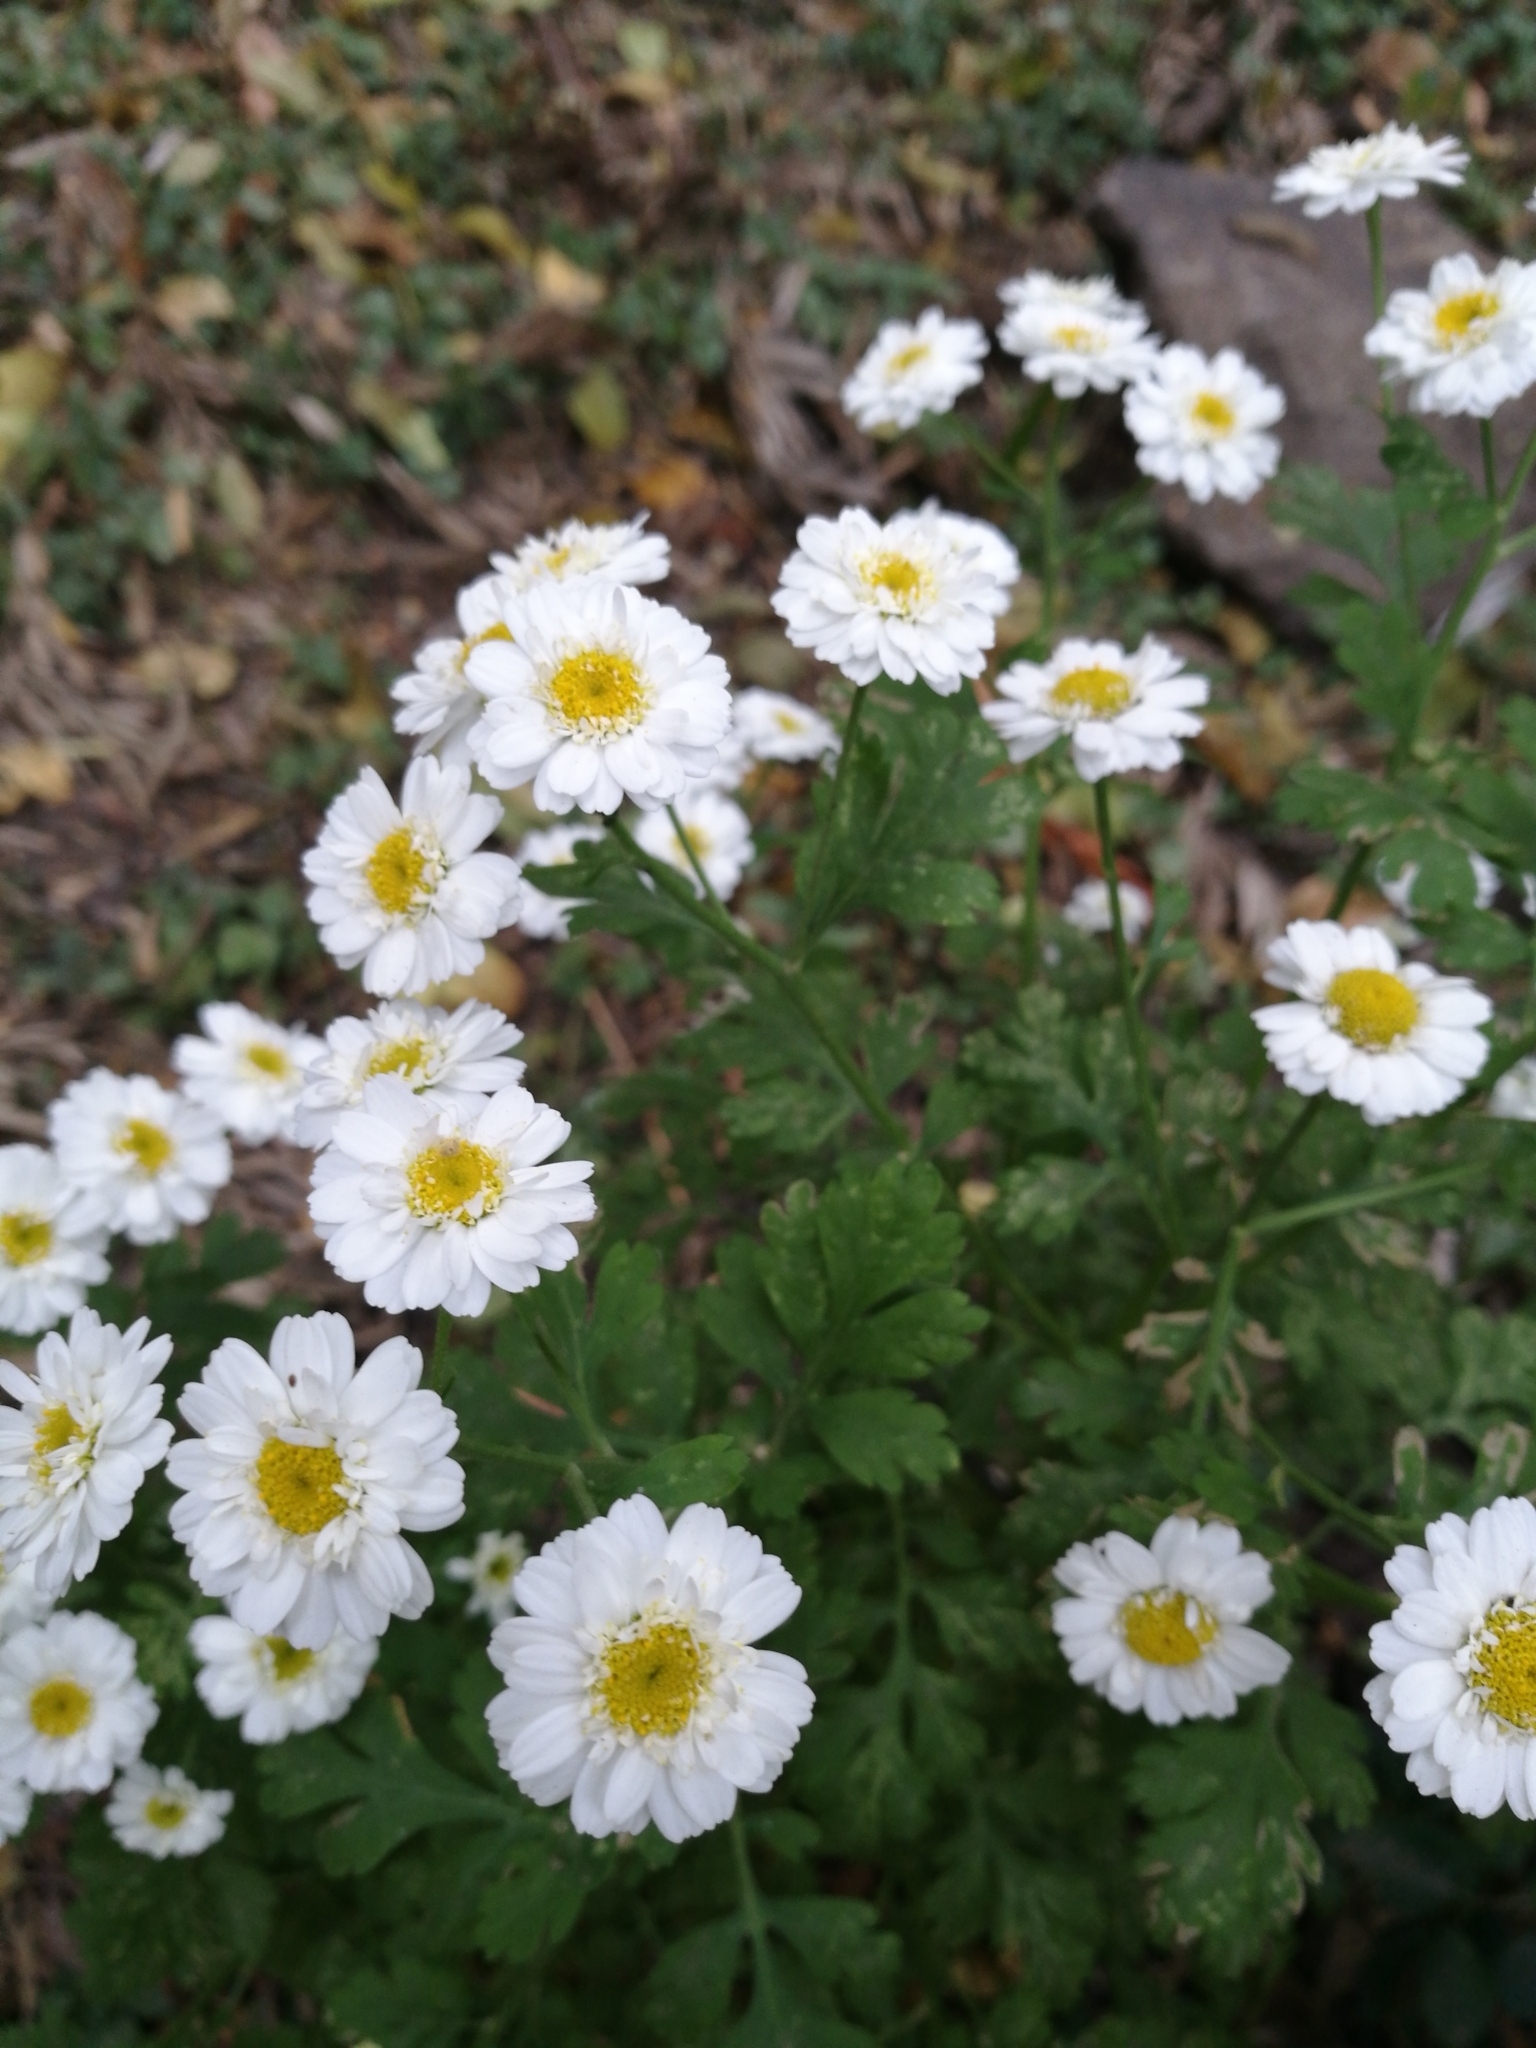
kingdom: Plantae
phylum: Tracheophyta
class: Magnoliopsida
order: Asterales
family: Asteraceae
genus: Tanacetum
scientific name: Tanacetum parthenium
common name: Feverfew
